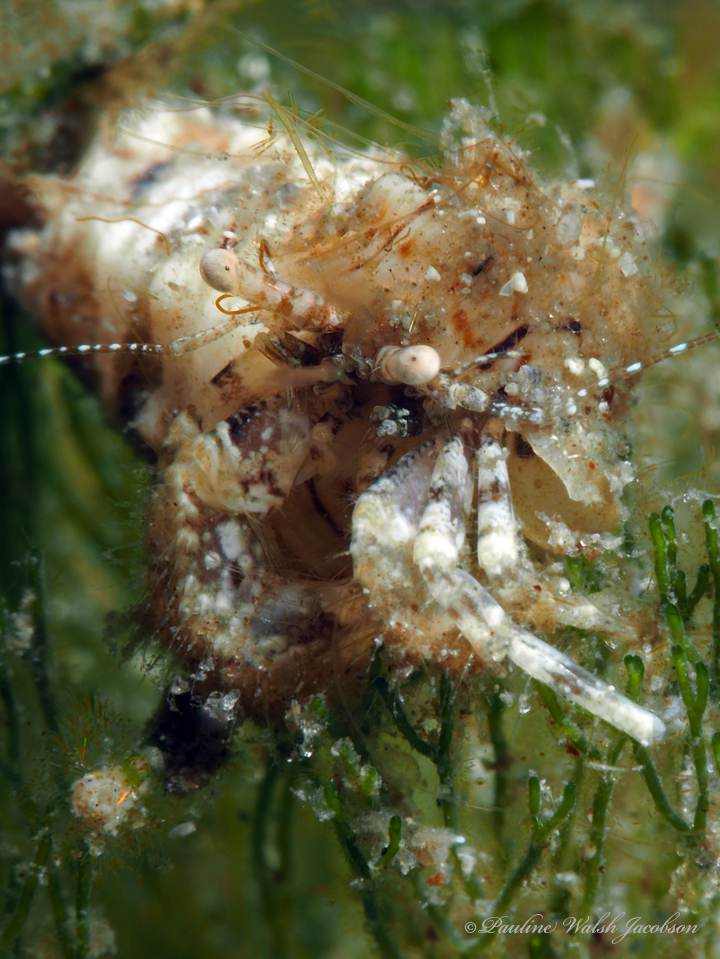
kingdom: Animalia
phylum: Arthropoda
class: Malacostraca
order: Decapoda
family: Paguridae
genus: Pagurus
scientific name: Pagurus maclaughlinae
